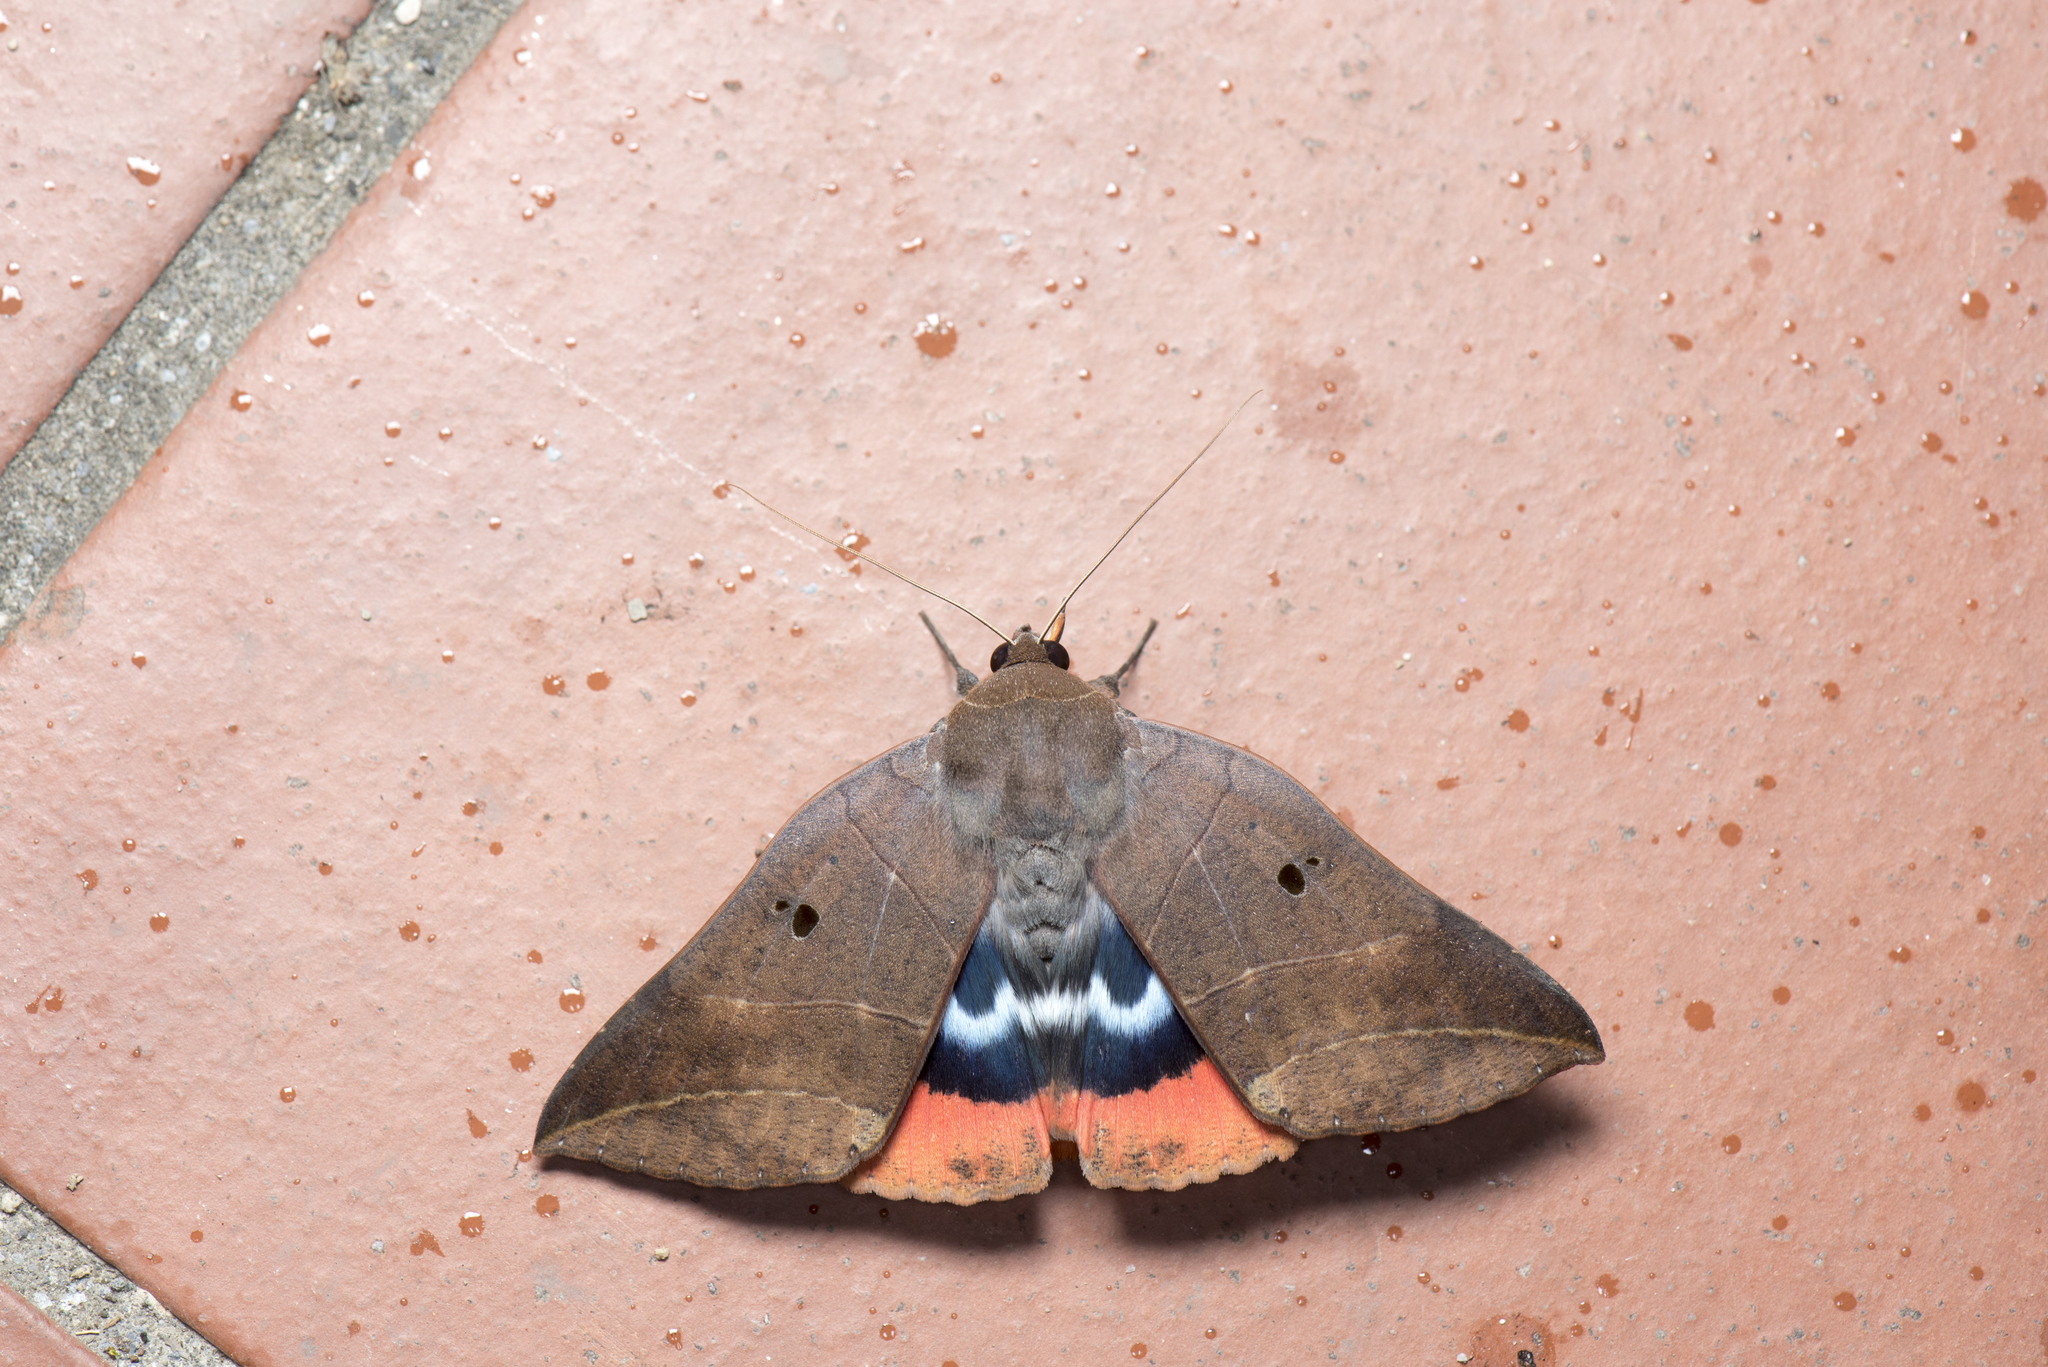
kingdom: Animalia
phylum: Arthropoda
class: Insecta
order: Lepidoptera
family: Erebidae
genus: Thyas
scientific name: Thyas juno
